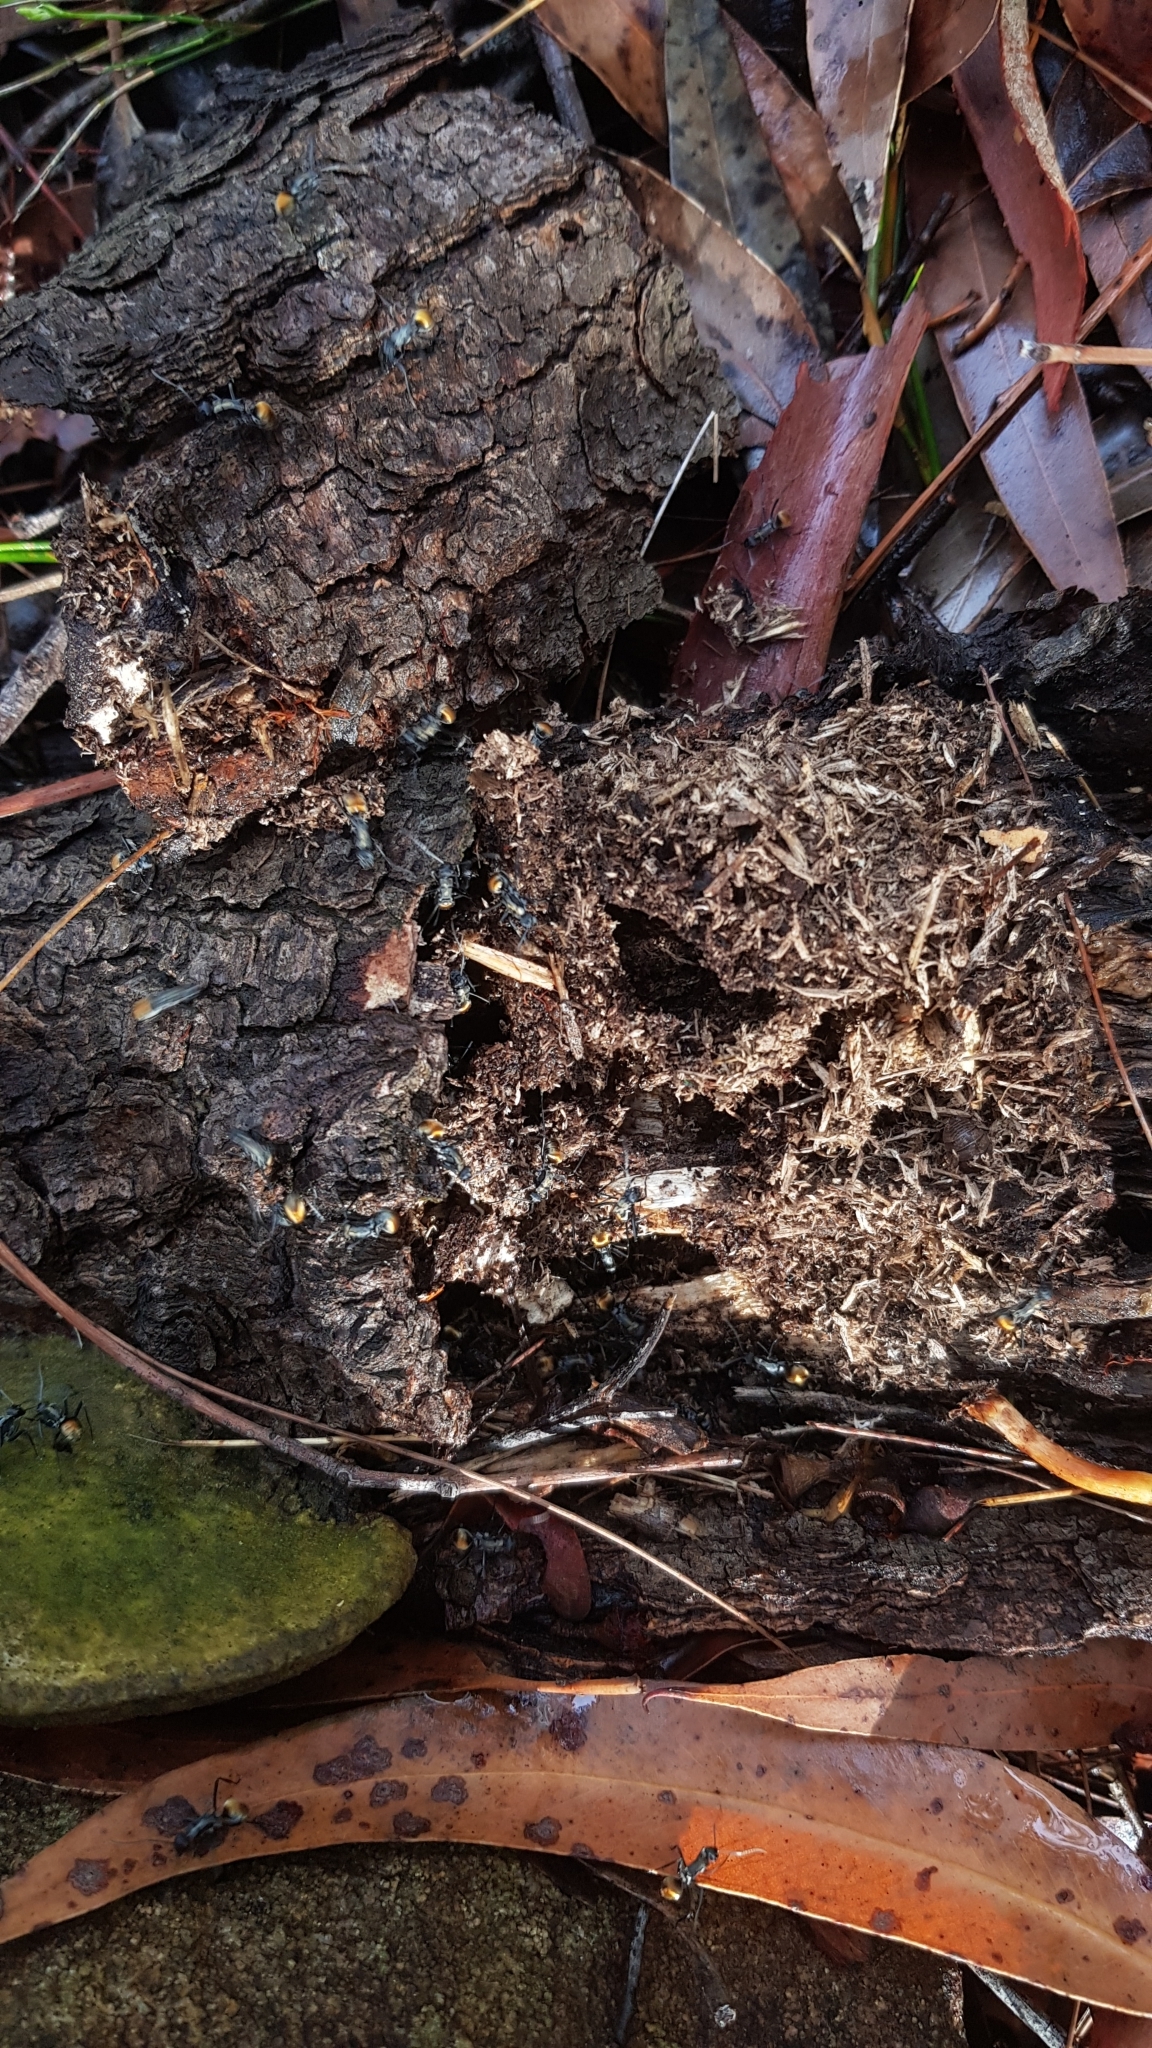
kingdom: Animalia
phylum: Arthropoda
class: Insecta
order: Hymenoptera
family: Formicidae
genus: Polyrhachis
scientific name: Polyrhachis ammon
